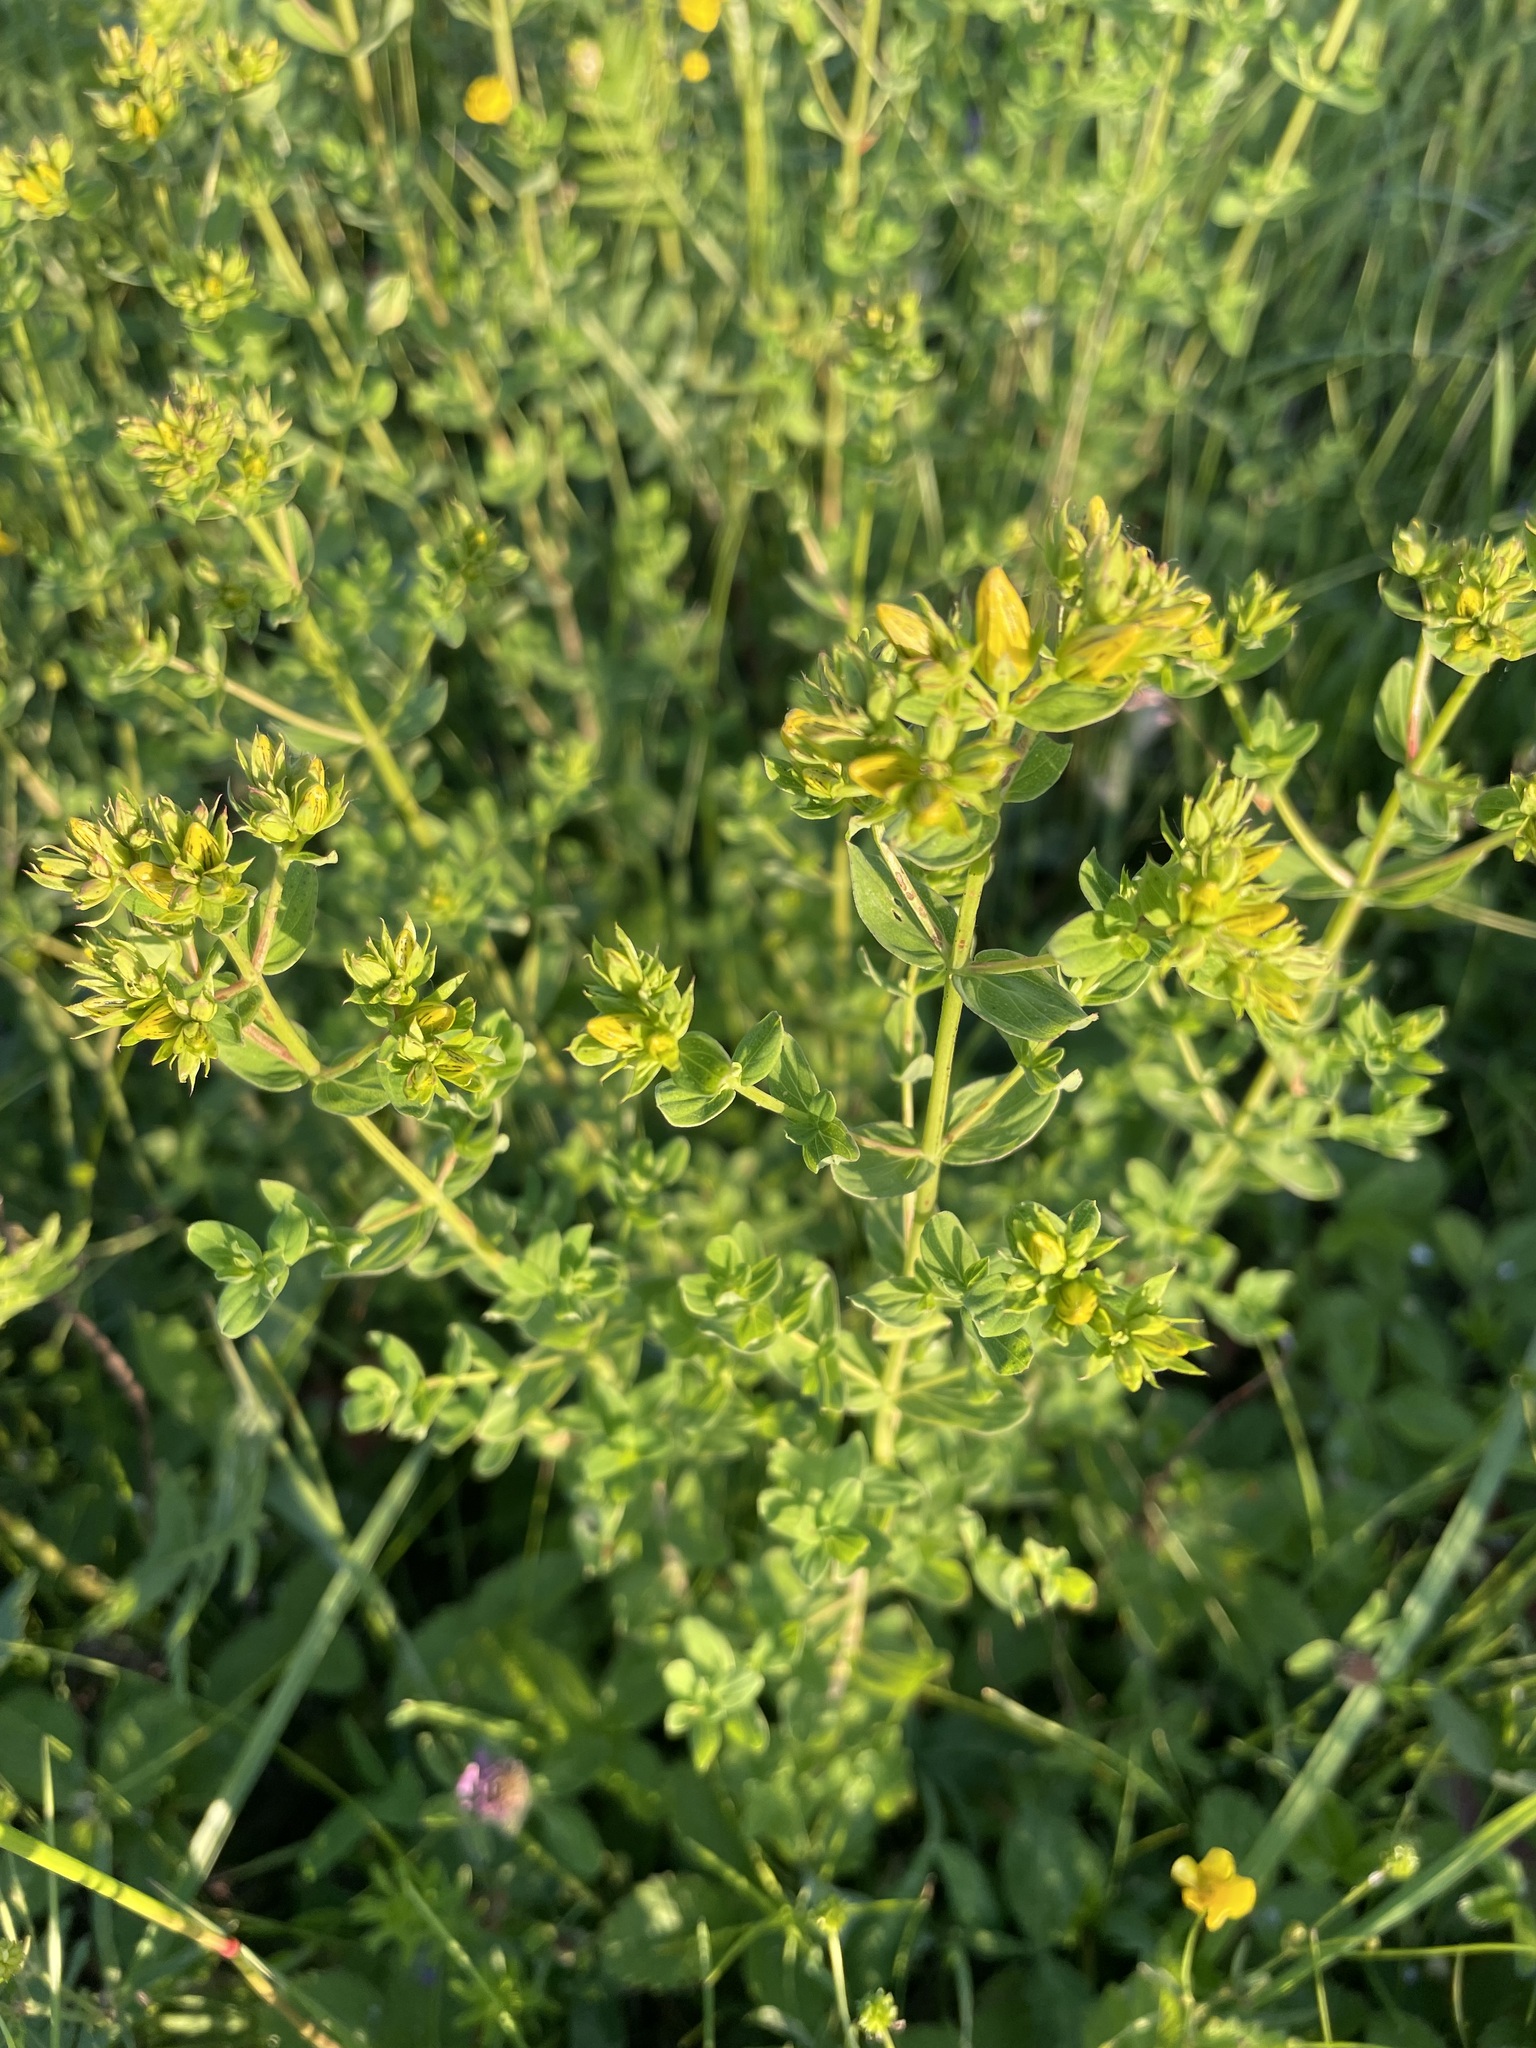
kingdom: Plantae
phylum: Tracheophyta
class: Magnoliopsida
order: Malpighiales
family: Hypericaceae
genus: Hypericum
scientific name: Hypericum perforatum
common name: Common st. johnswort
